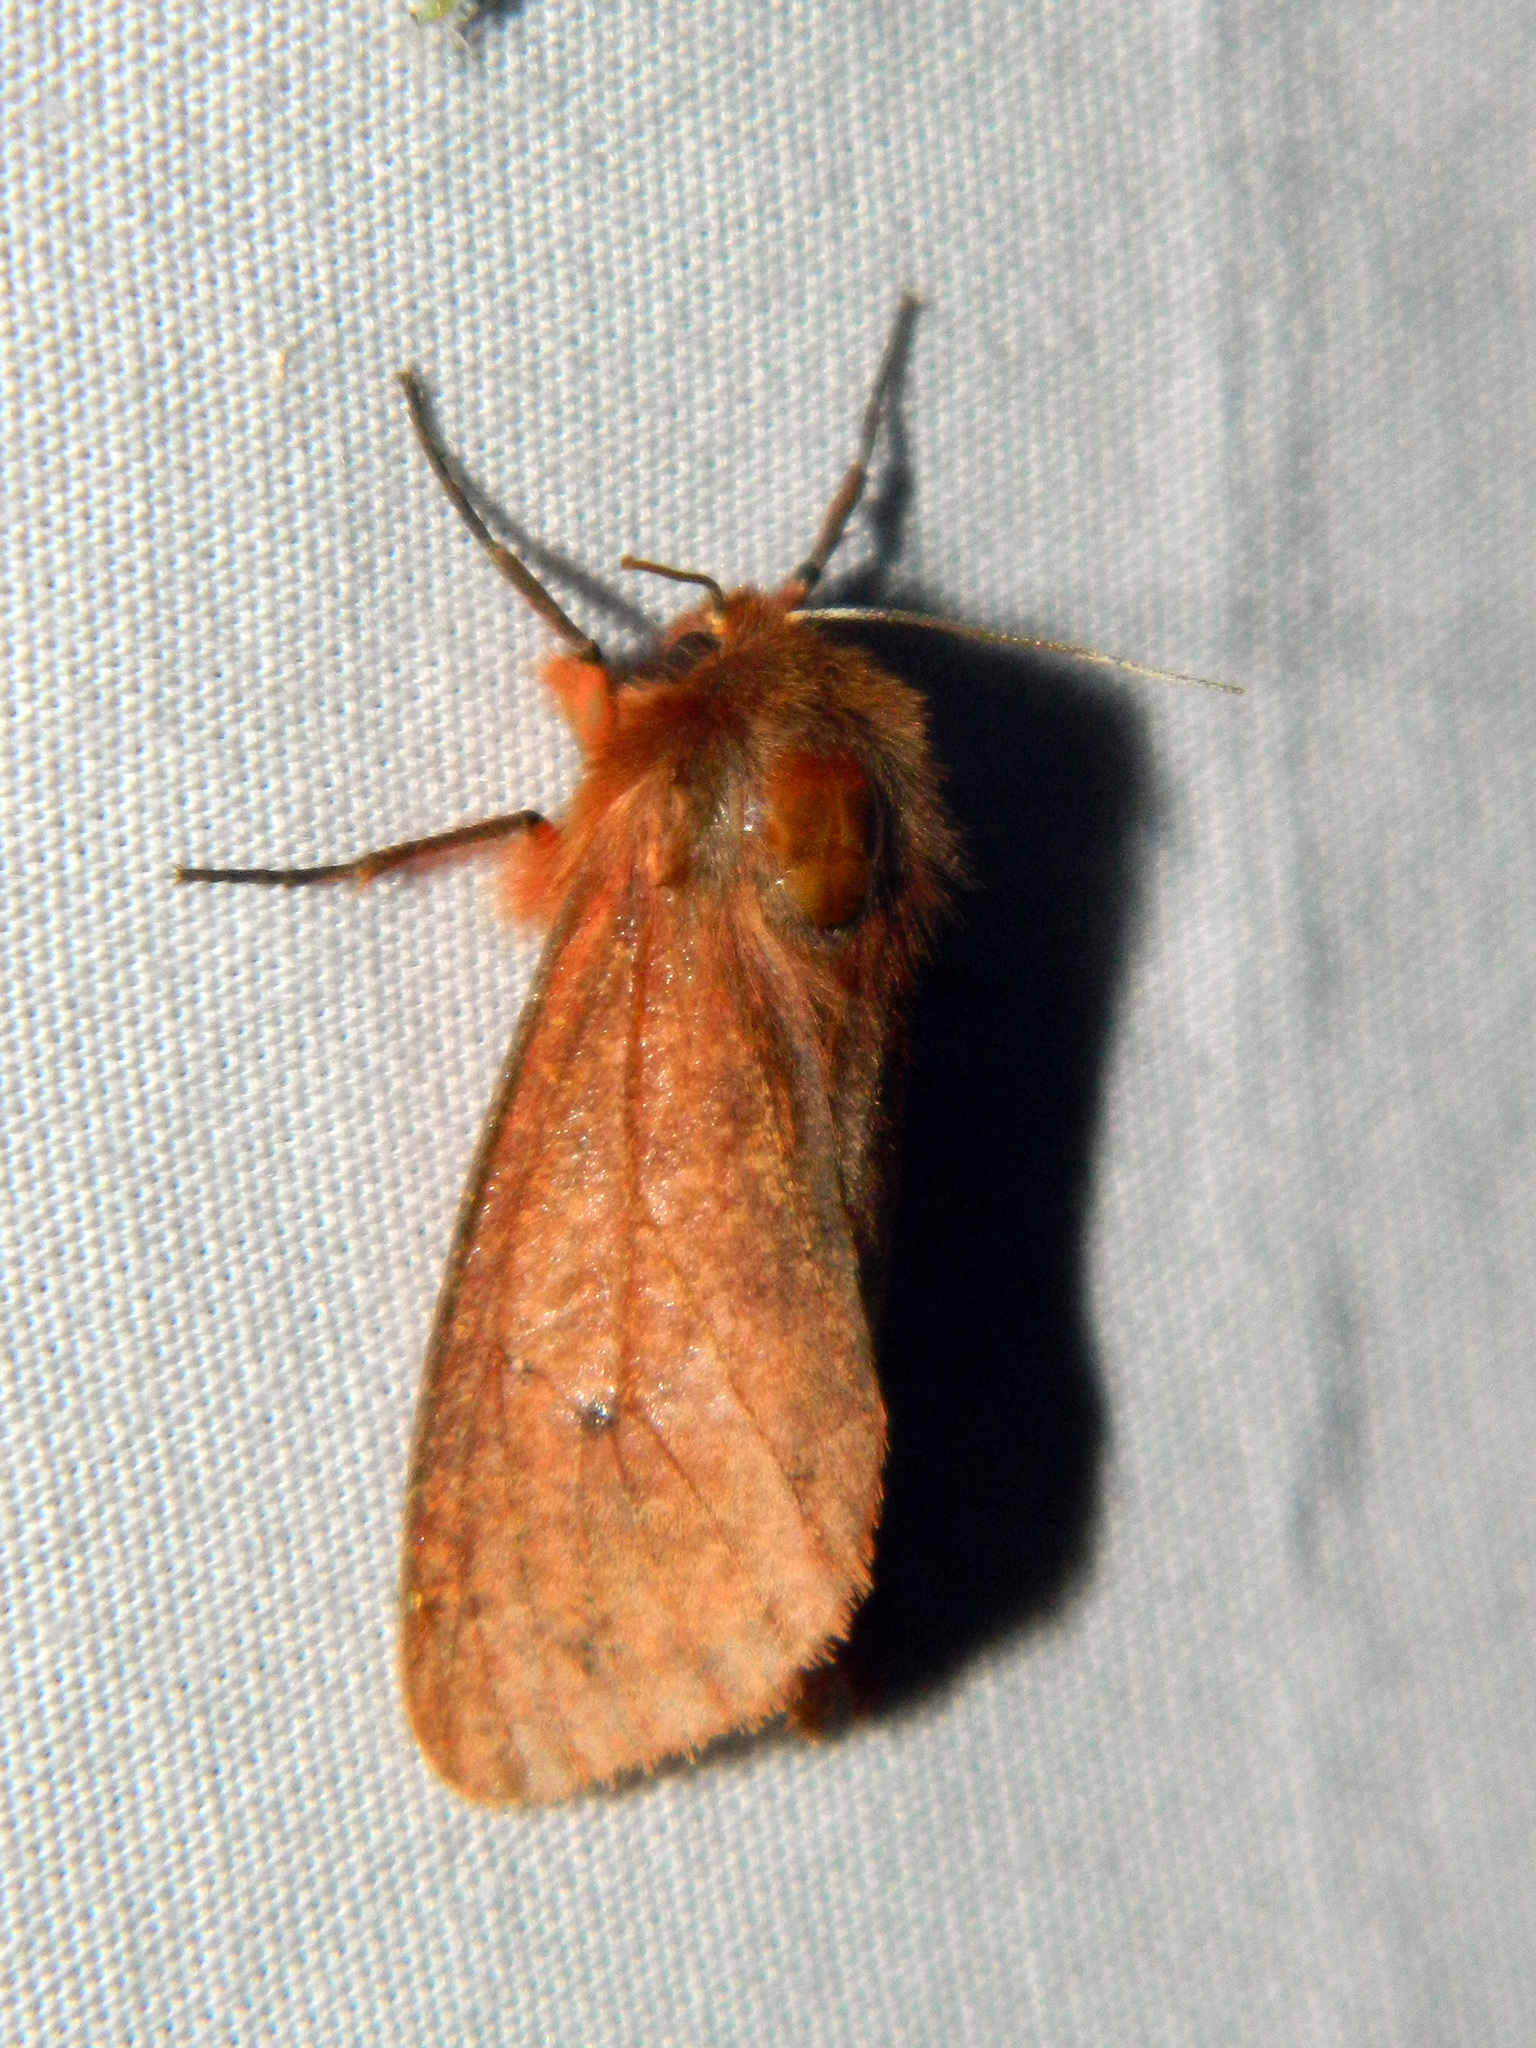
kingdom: Animalia
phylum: Arthropoda
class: Insecta
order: Lepidoptera
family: Erebidae
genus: Phragmatobia
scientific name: Phragmatobia assimilans
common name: Large ruby tiger moth
